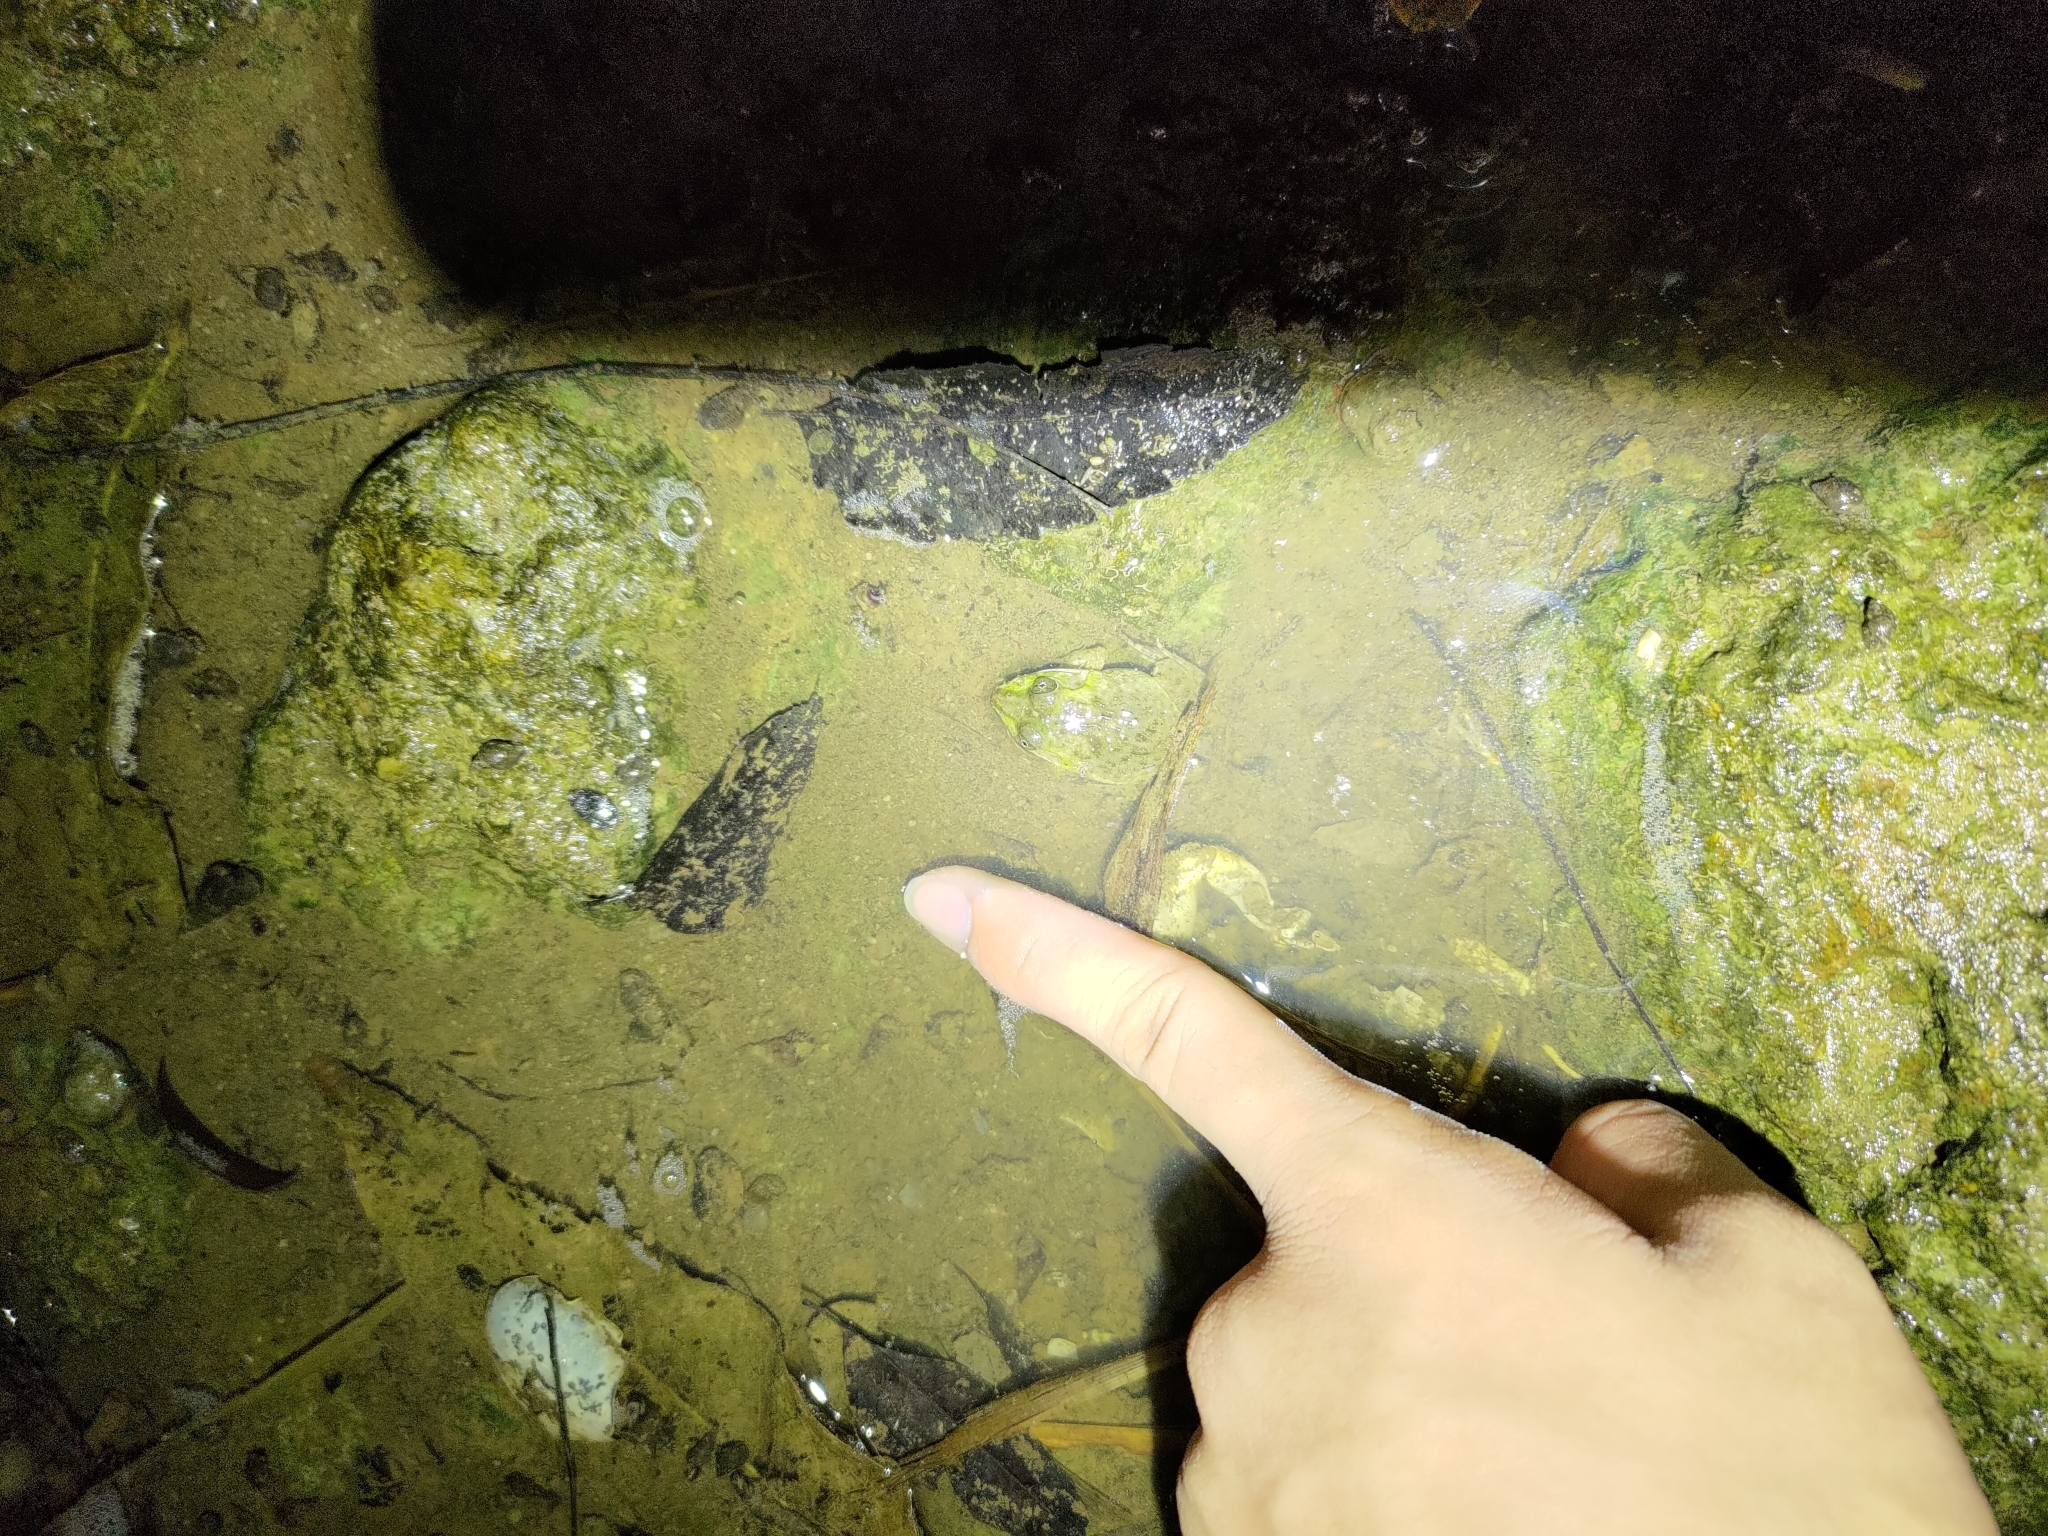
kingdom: Animalia
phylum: Chordata
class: Amphibia
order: Anura
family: Dicroglossidae
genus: Hoplobatrachus
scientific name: Hoplobatrachus rugulosus
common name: Chinese edible frog
